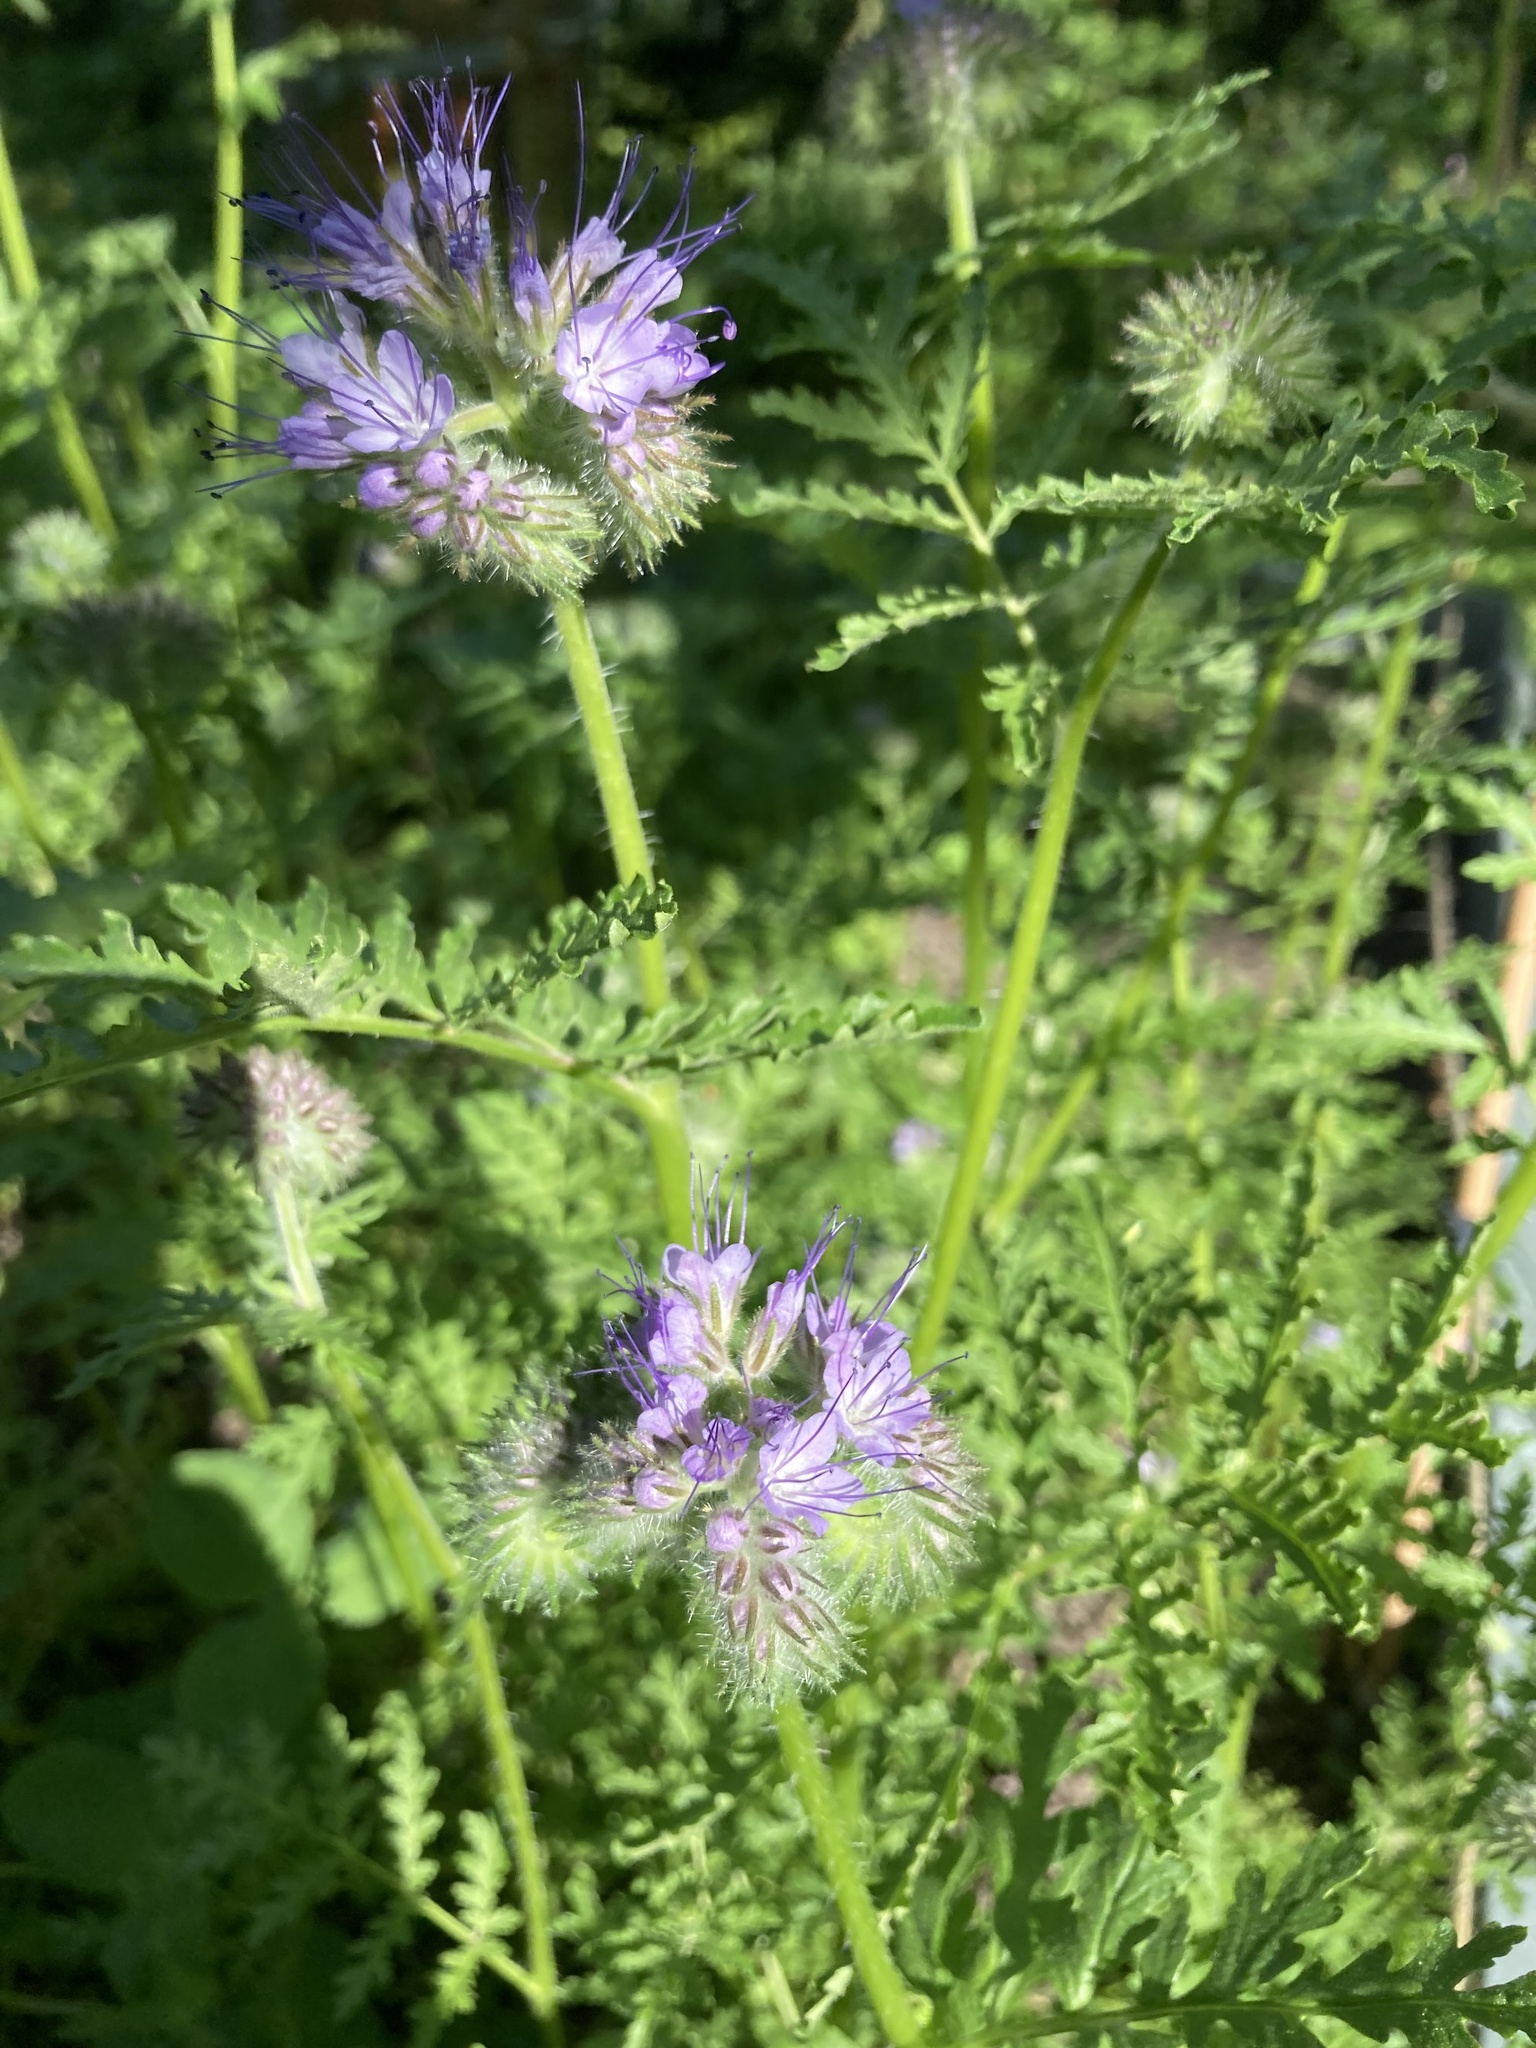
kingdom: Plantae
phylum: Tracheophyta
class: Magnoliopsida
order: Boraginales
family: Hydrophyllaceae
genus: Phacelia
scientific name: Phacelia tanacetifolia
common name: Phacelia
